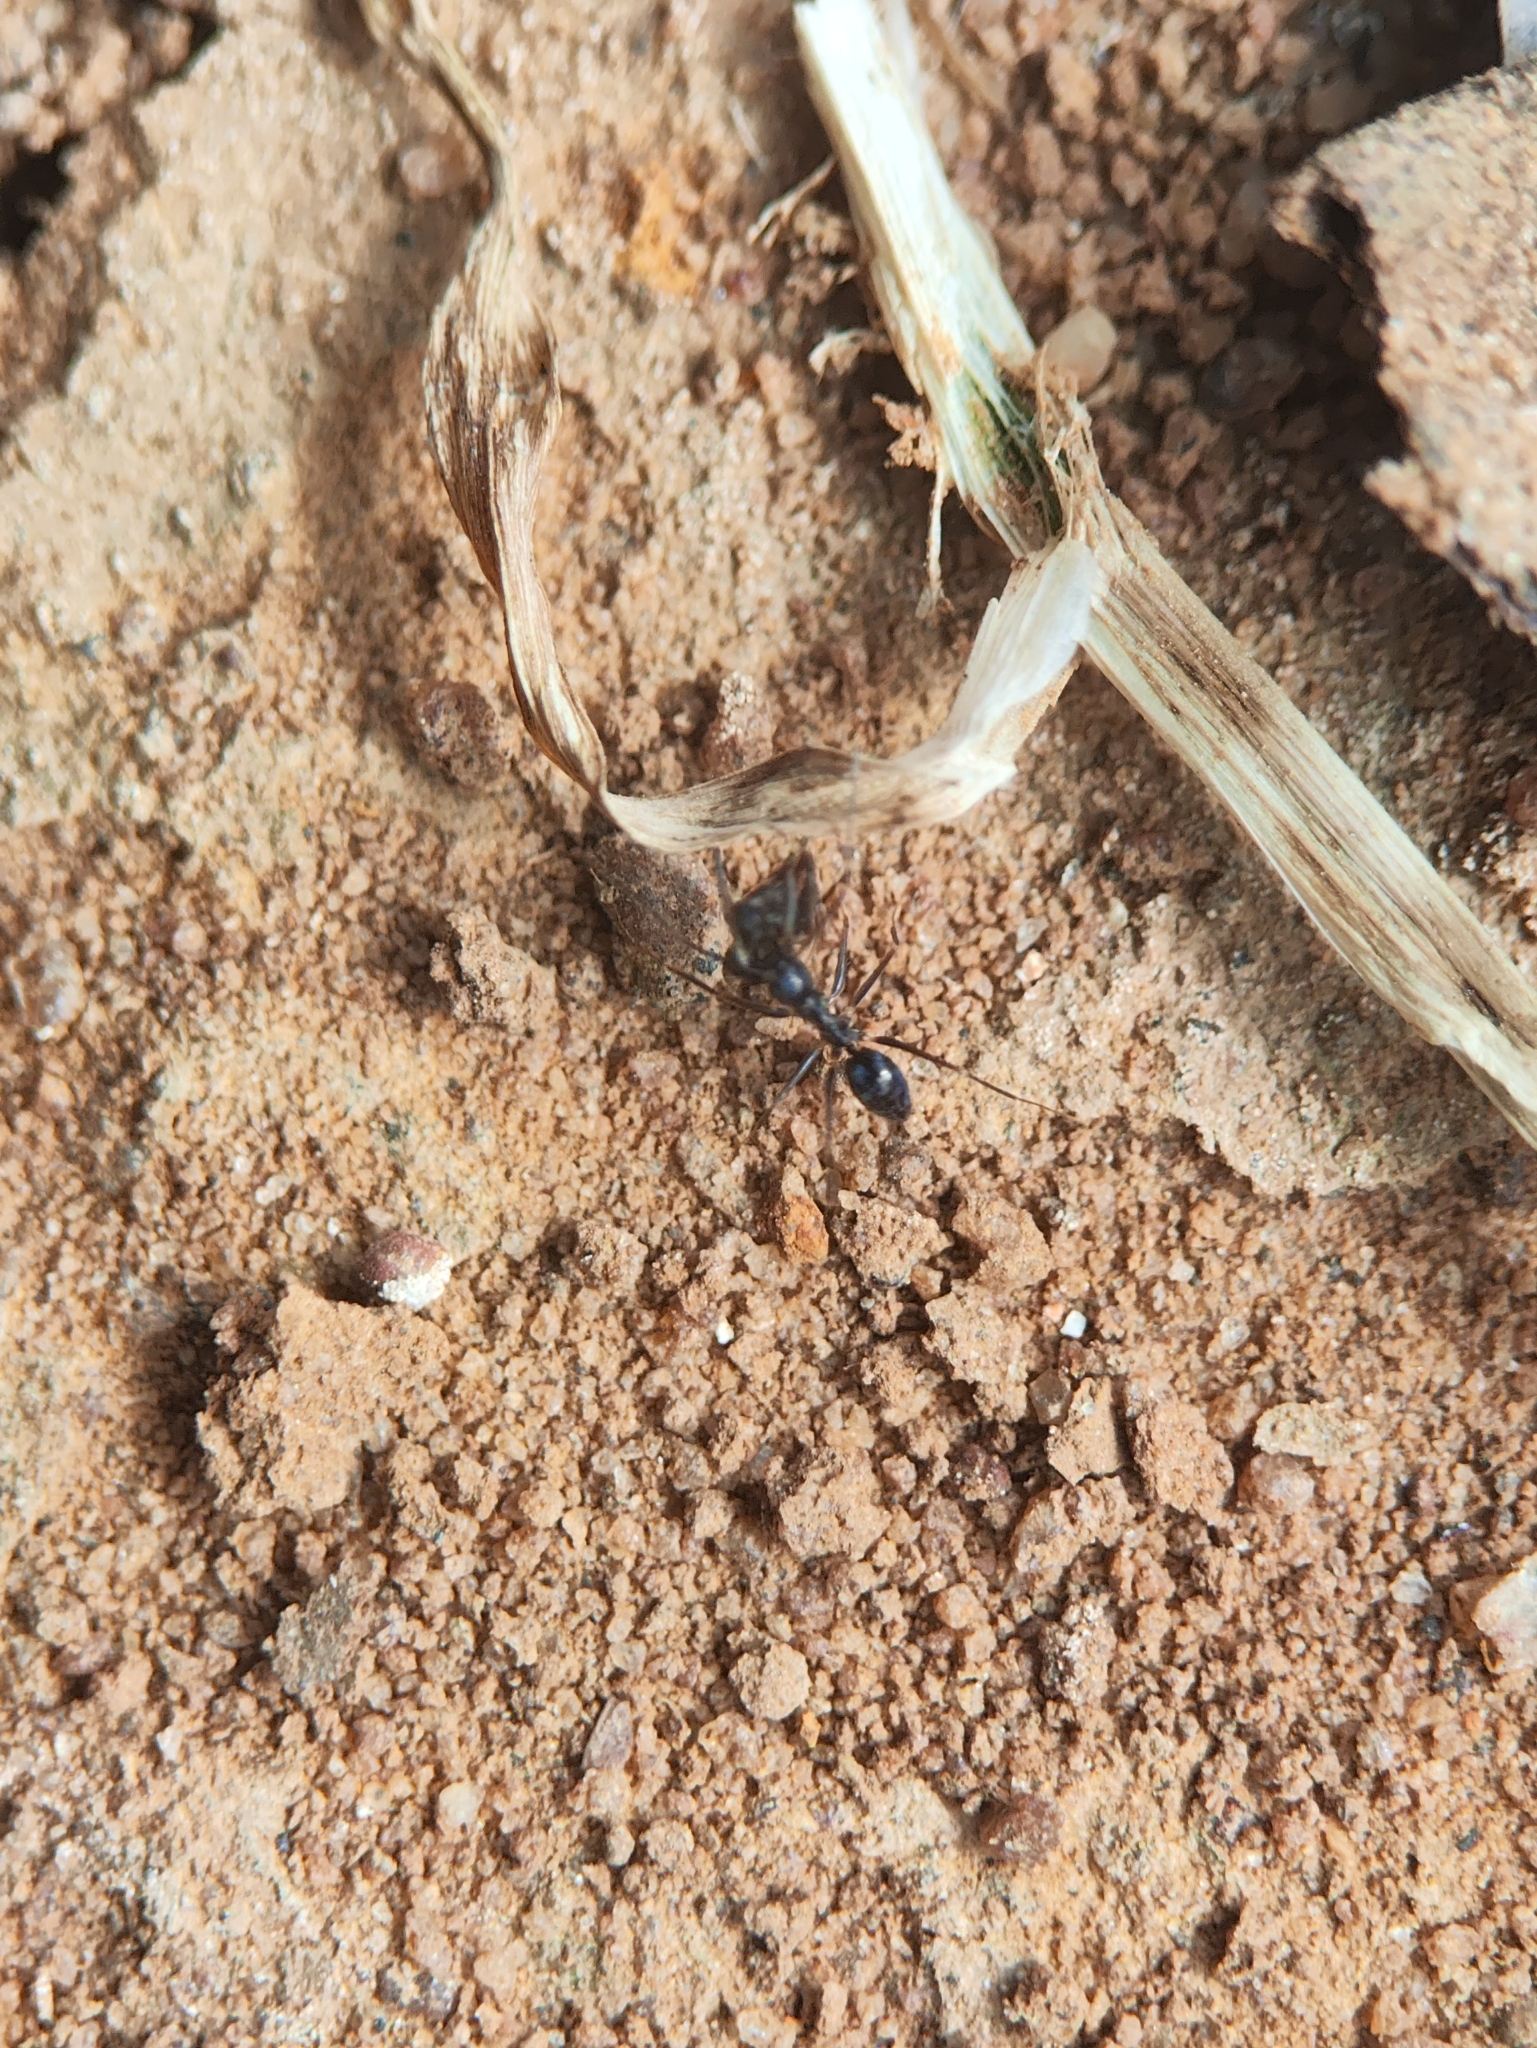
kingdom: Animalia
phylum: Arthropoda
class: Insecta
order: Hymenoptera
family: Formicidae
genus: Paratrechina
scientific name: Paratrechina longicornis
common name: Longhorned crazy ant
